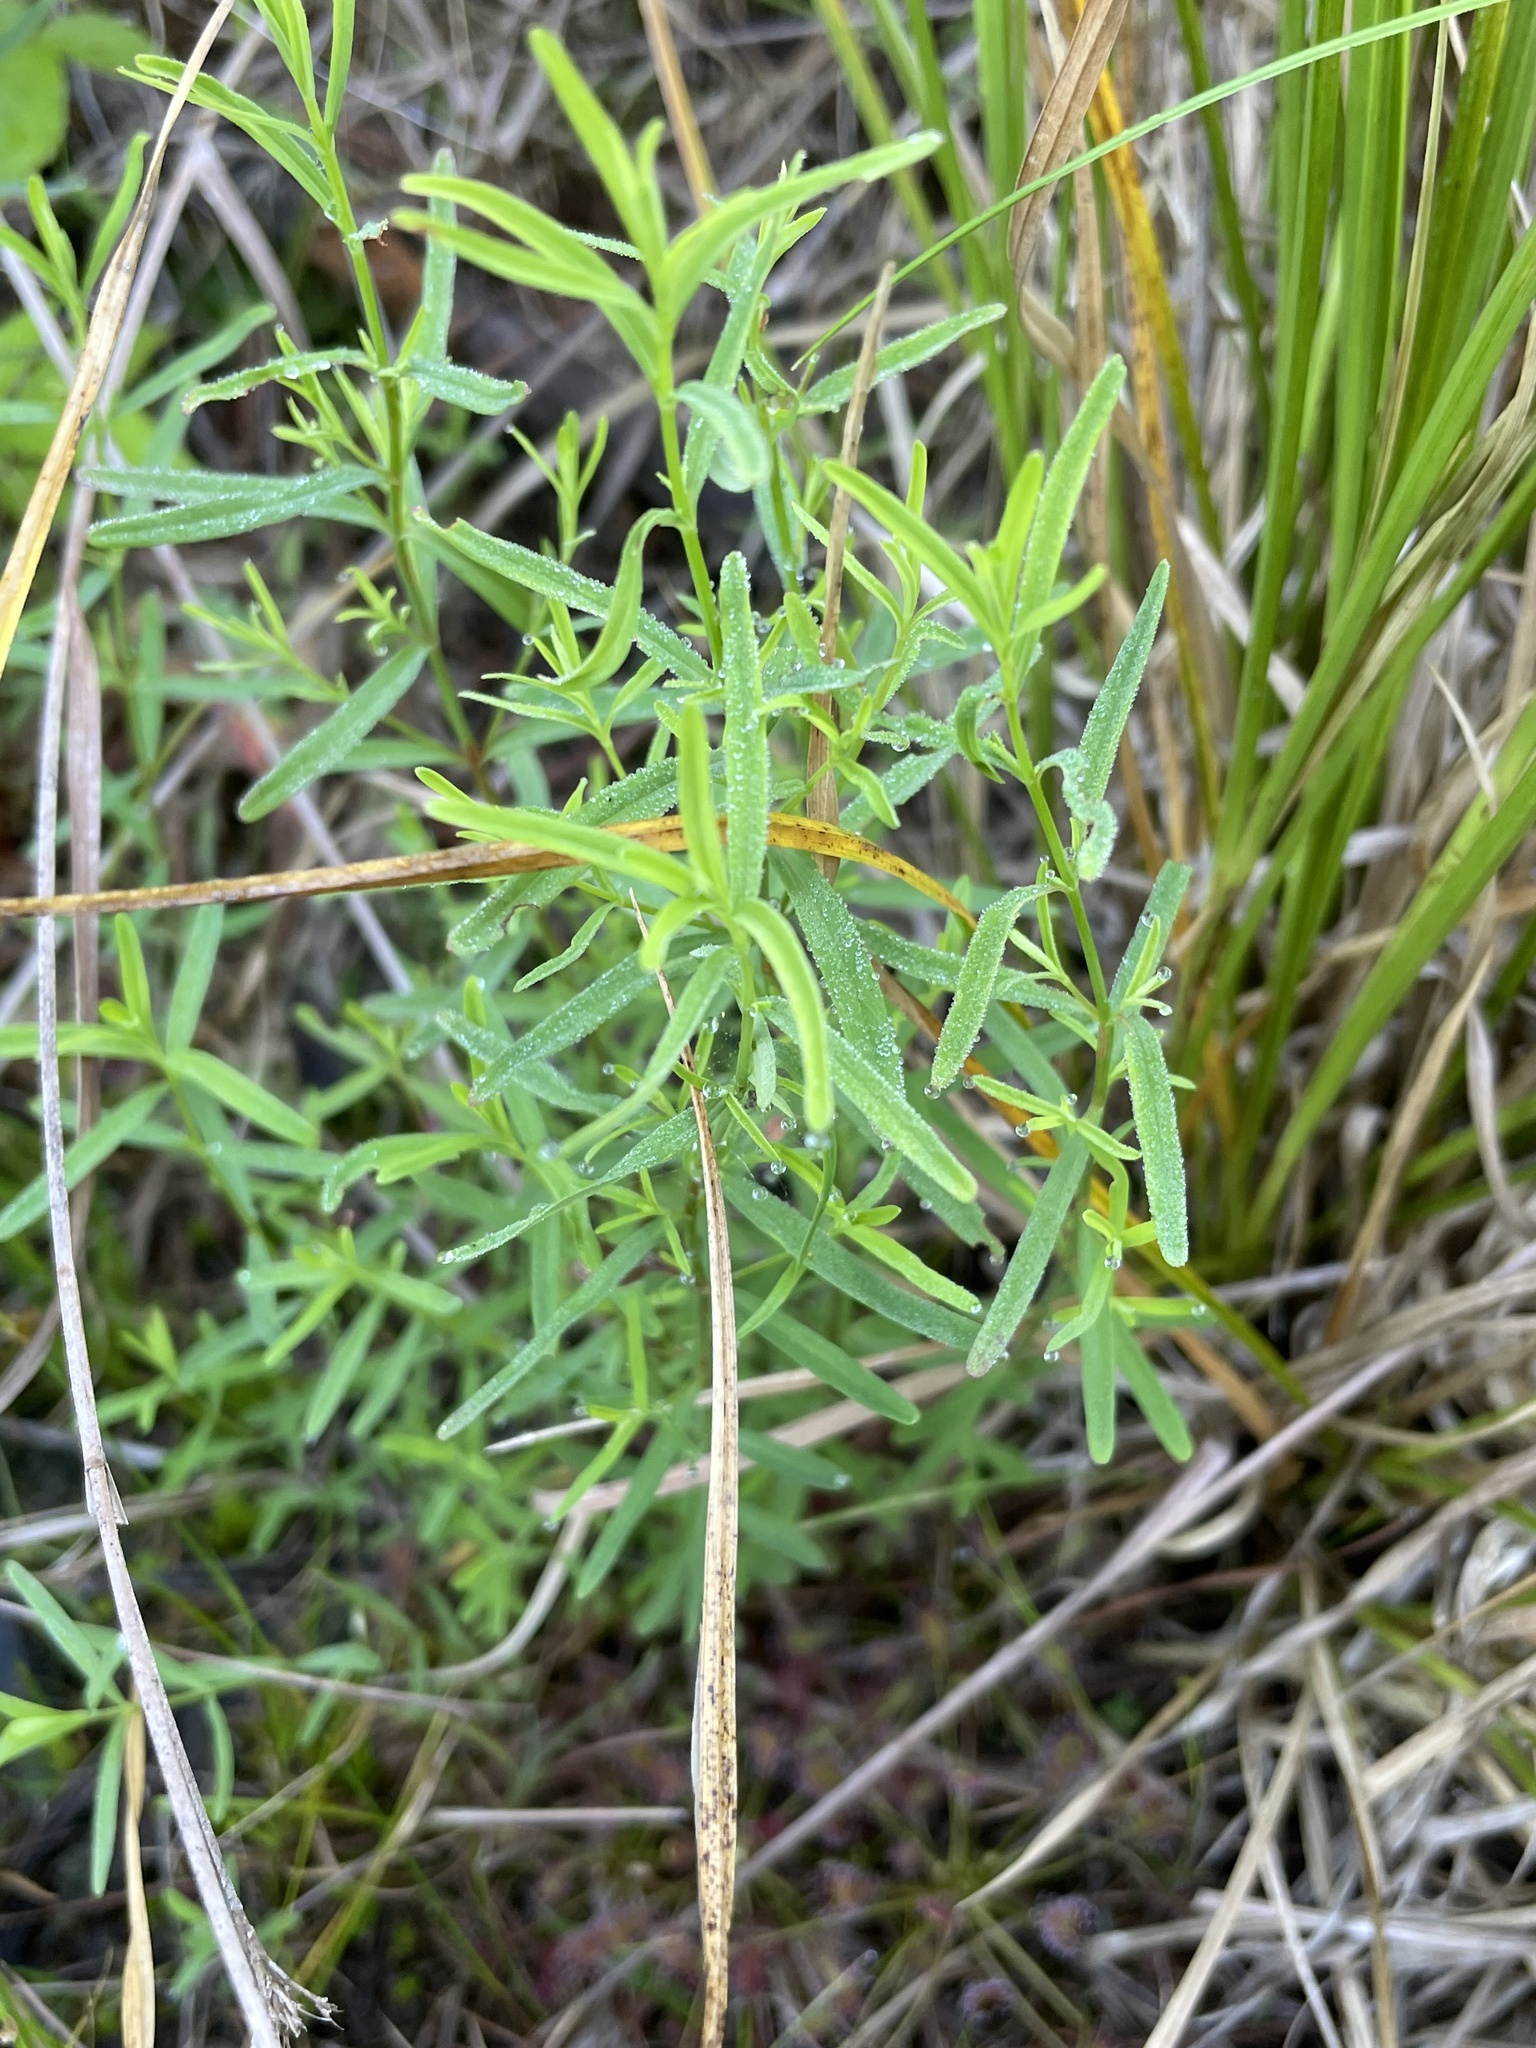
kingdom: Plantae
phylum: Tracheophyta
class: Magnoliopsida
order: Malpighiales
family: Hypericaceae
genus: Hypericum
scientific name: Hypericum canadense
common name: Irish st. john's-wort
